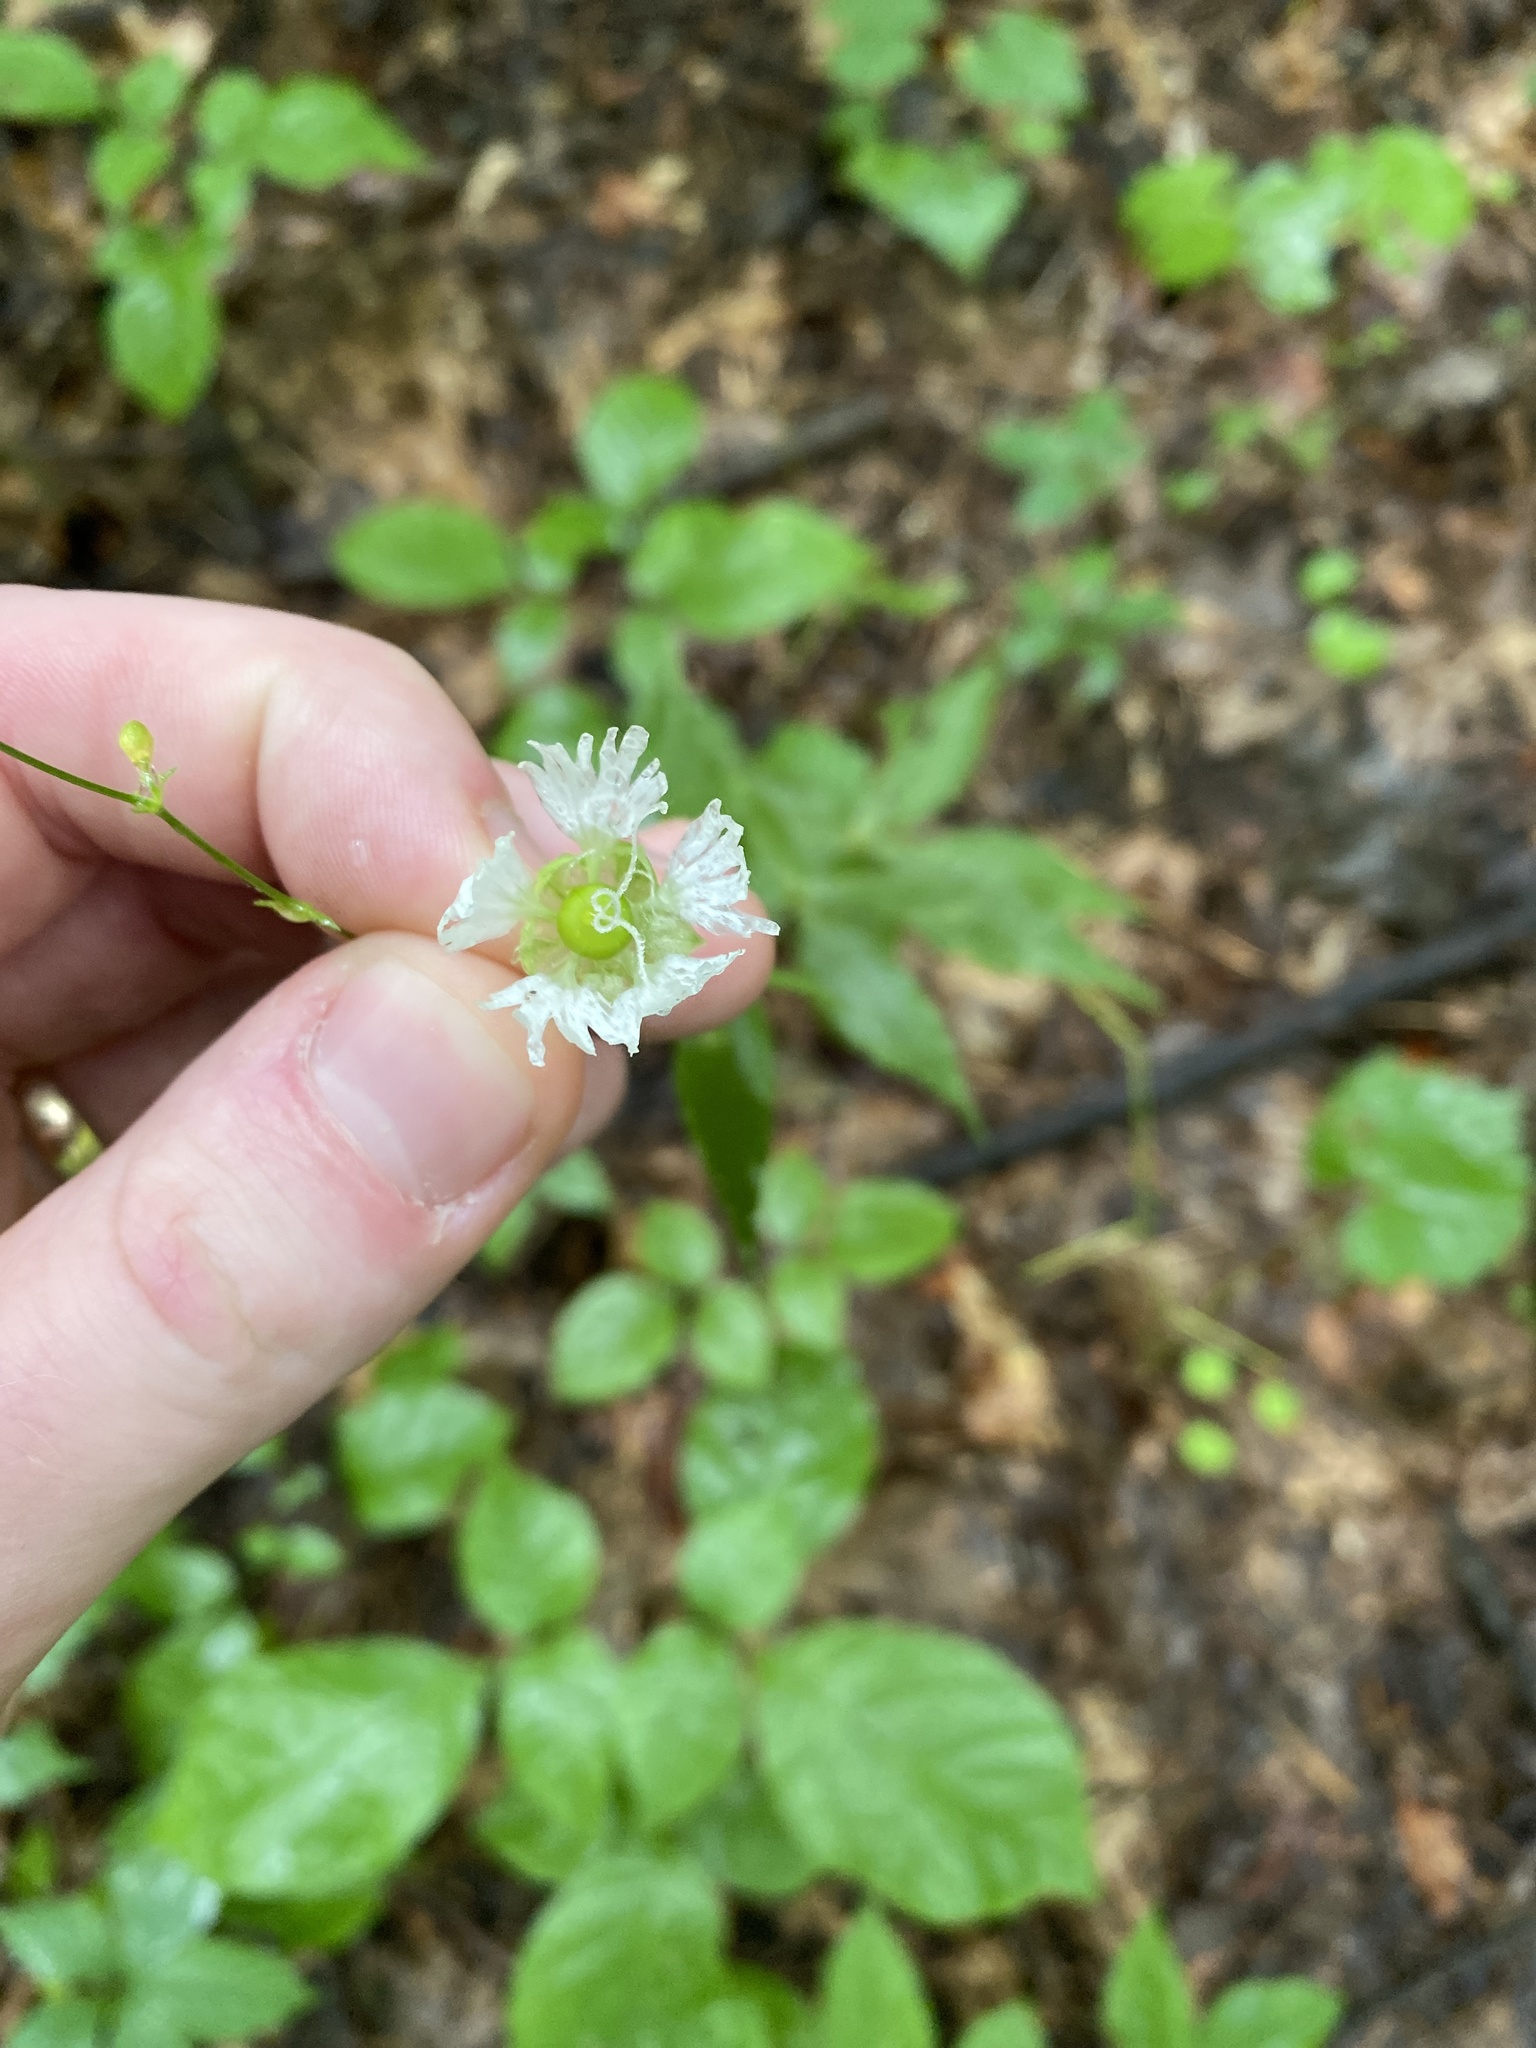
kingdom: Plantae
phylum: Tracheophyta
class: Magnoliopsida
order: Caryophyllales
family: Caryophyllaceae
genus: Silene
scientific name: Silene stellata
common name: Starry campion
